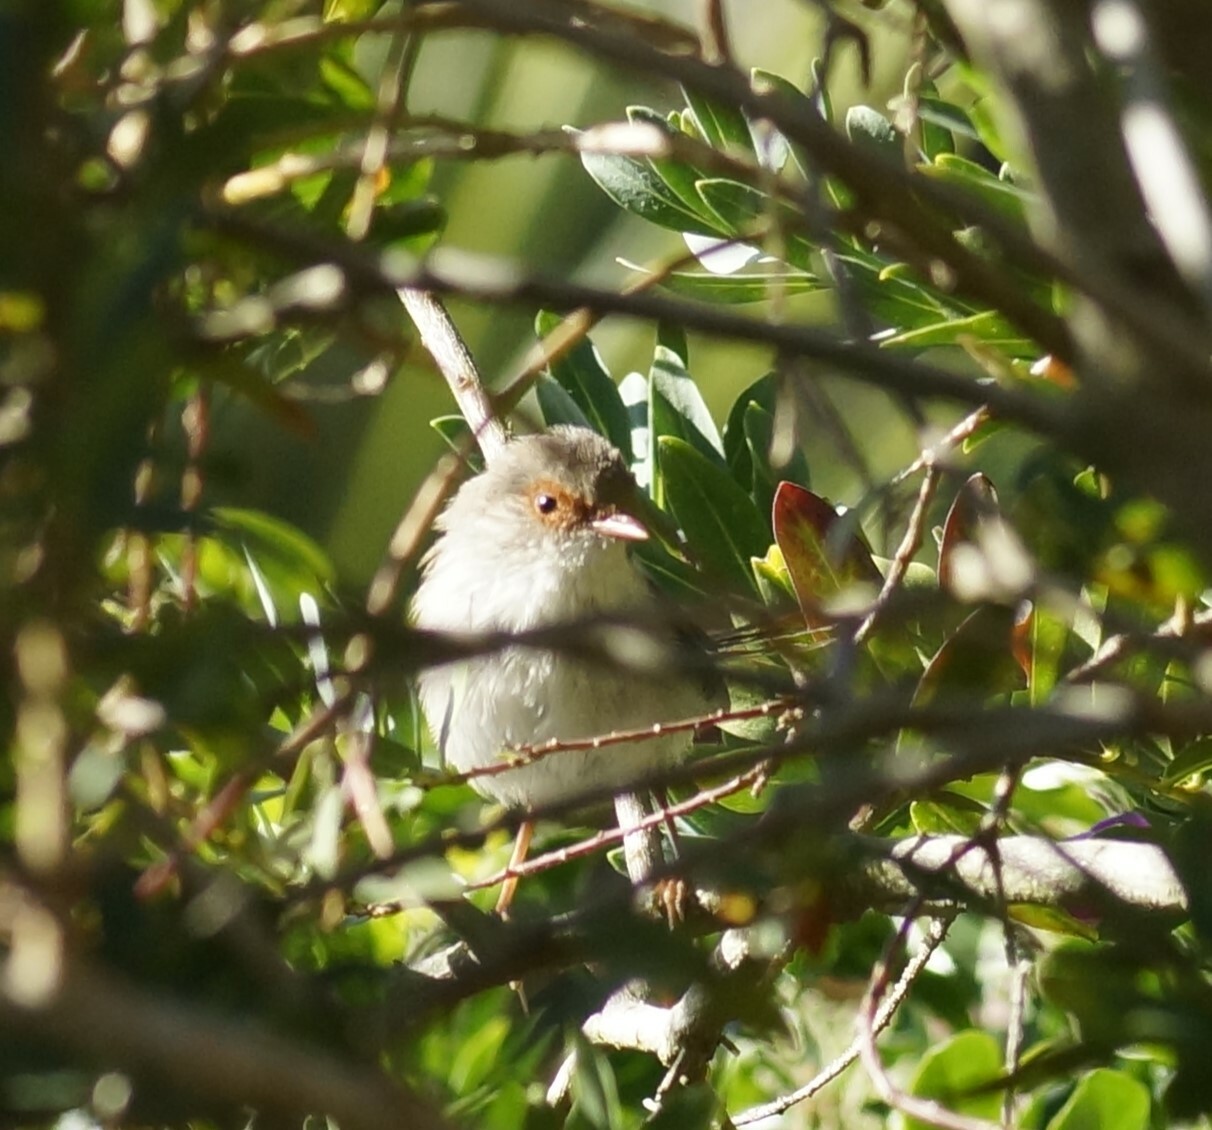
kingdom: Animalia
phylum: Chordata
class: Aves
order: Passeriformes
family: Maluridae
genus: Malurus
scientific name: Malurus cyaneus
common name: Superb fairywren
